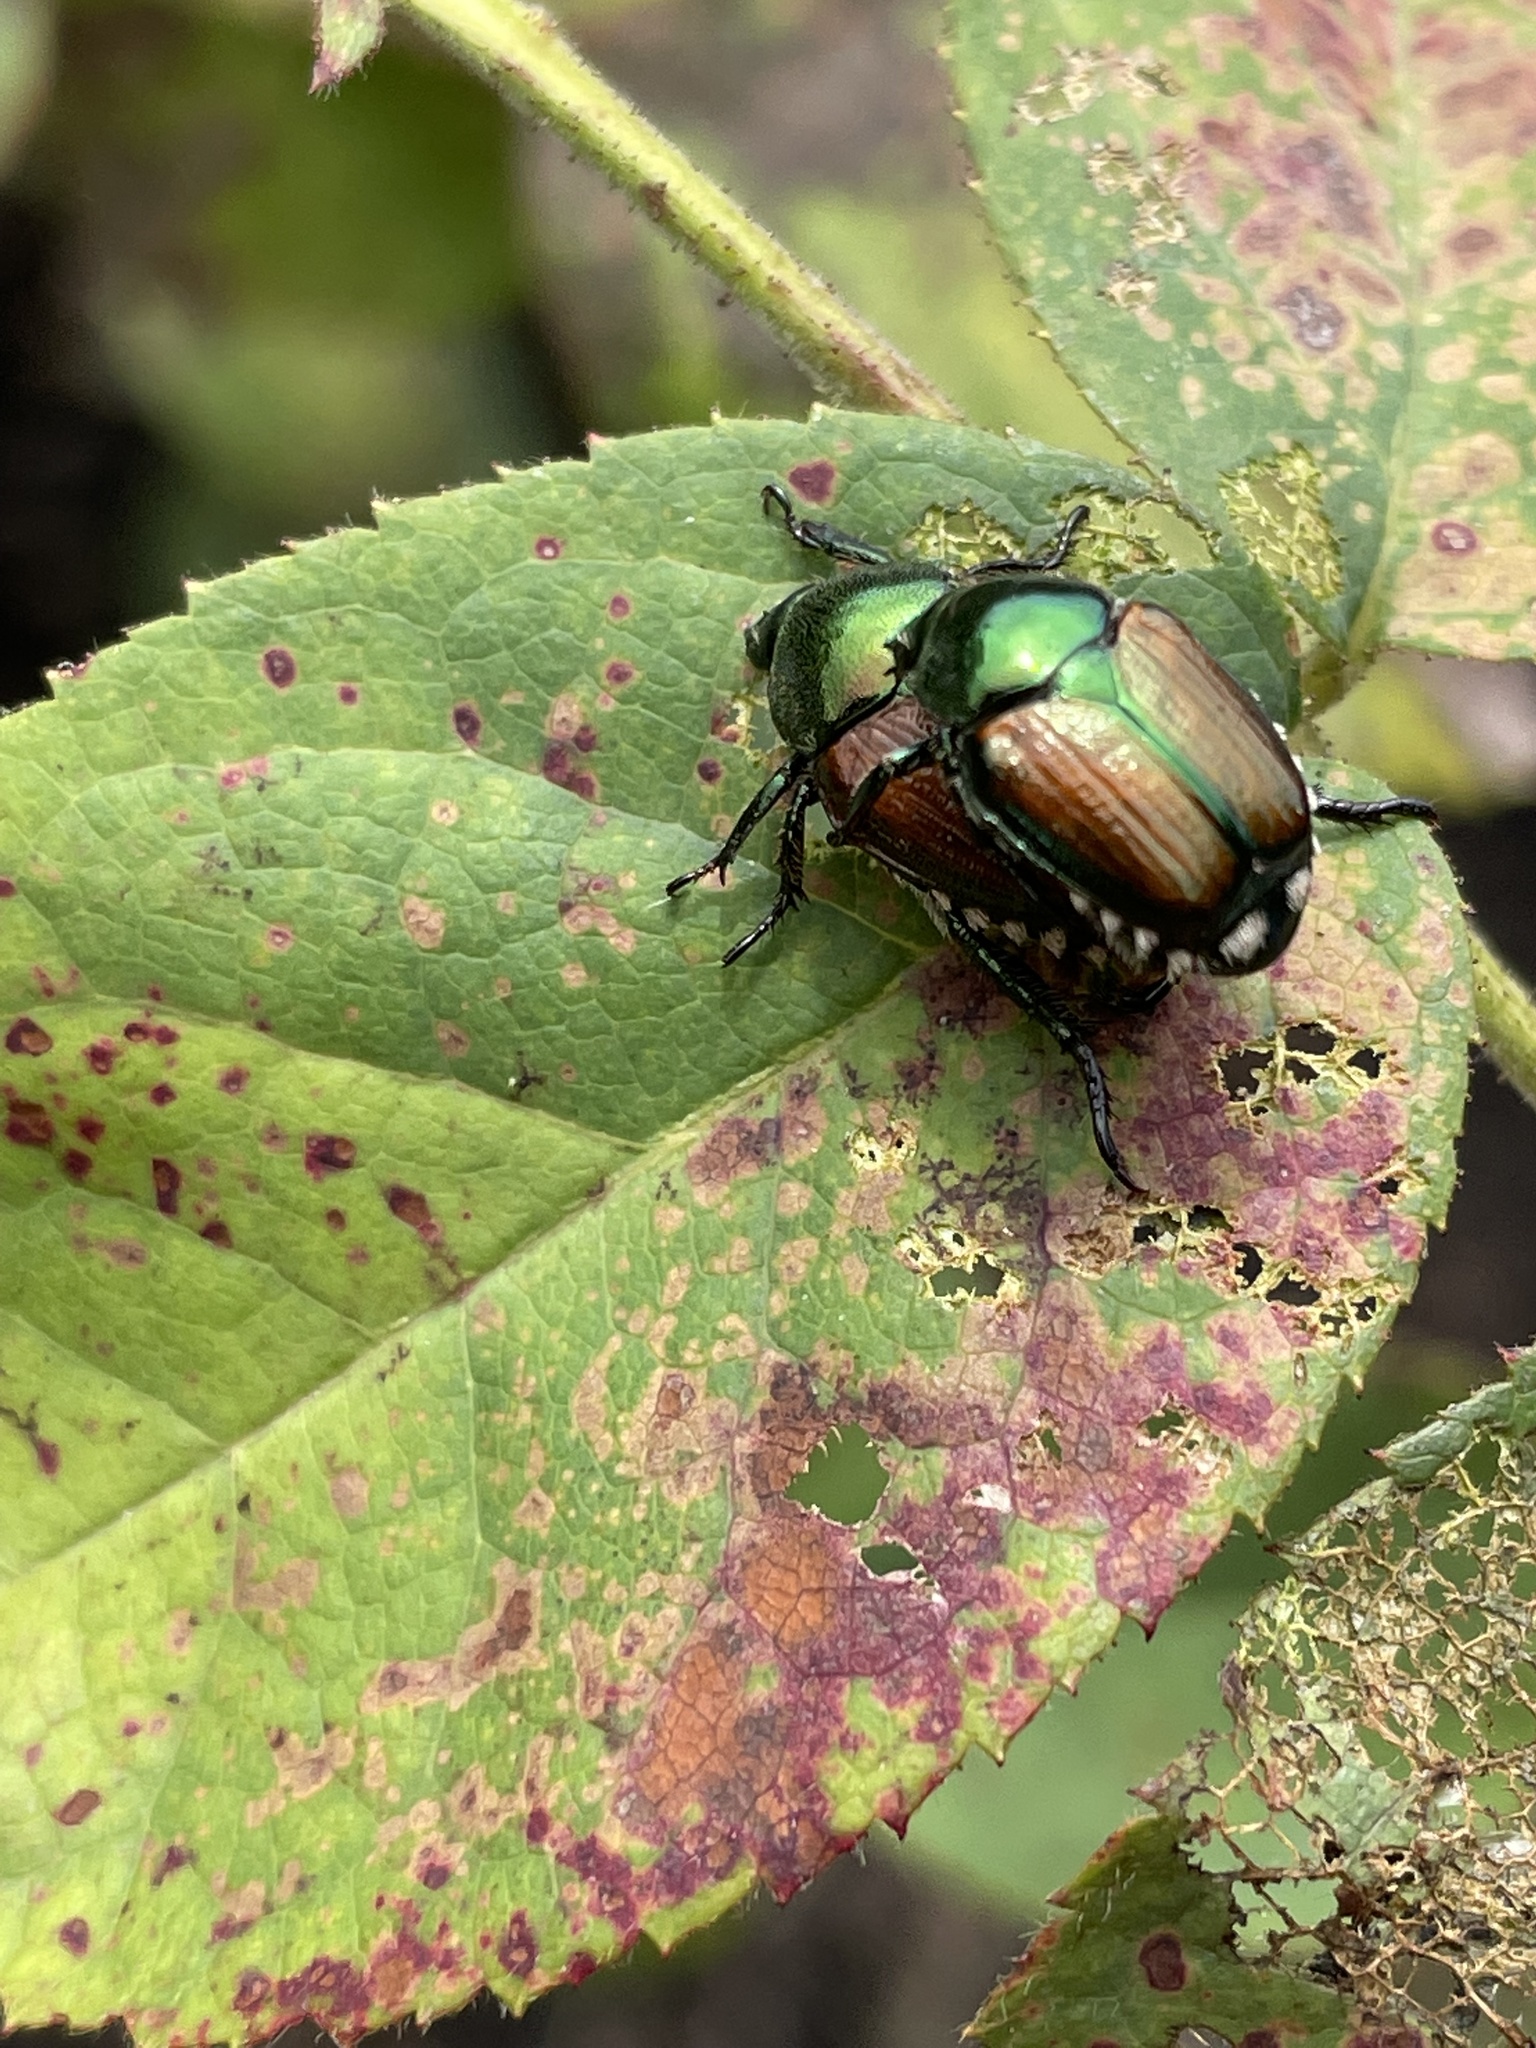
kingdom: Animalia
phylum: Arthropoda
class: Insecta
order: Coleoptera
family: Scarabaeidae
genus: Popillia
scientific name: Popillia japonica
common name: Japanese beetle
